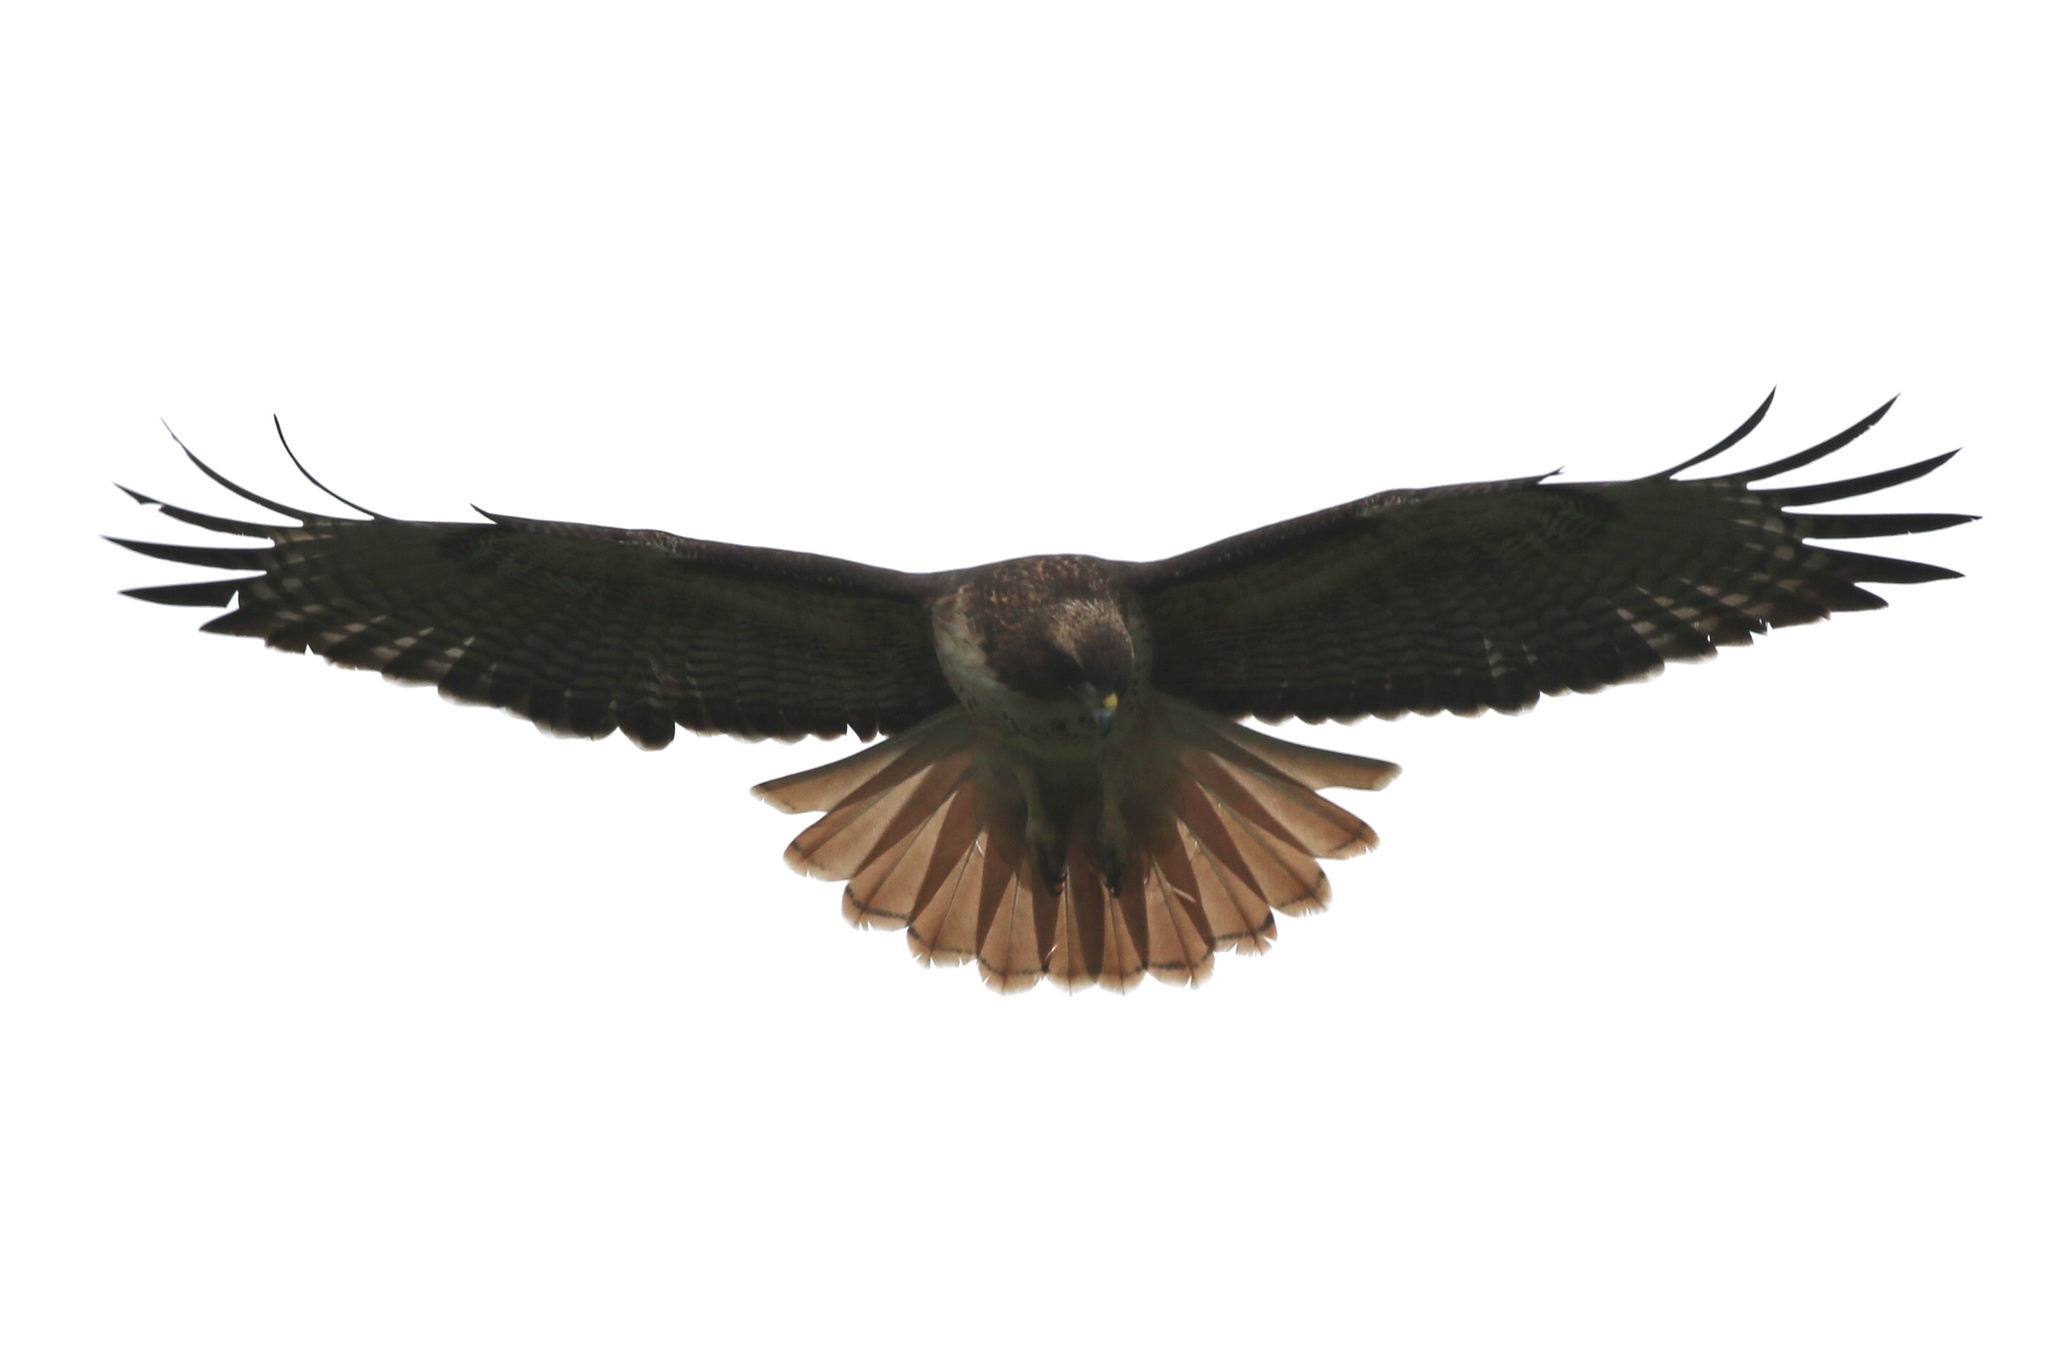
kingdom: Animalia
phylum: Chordata
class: Aves
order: Accipitriformes
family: Accipitridae
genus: Buteo
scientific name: Buteo jamaicensis
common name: Red-tailed hawk
